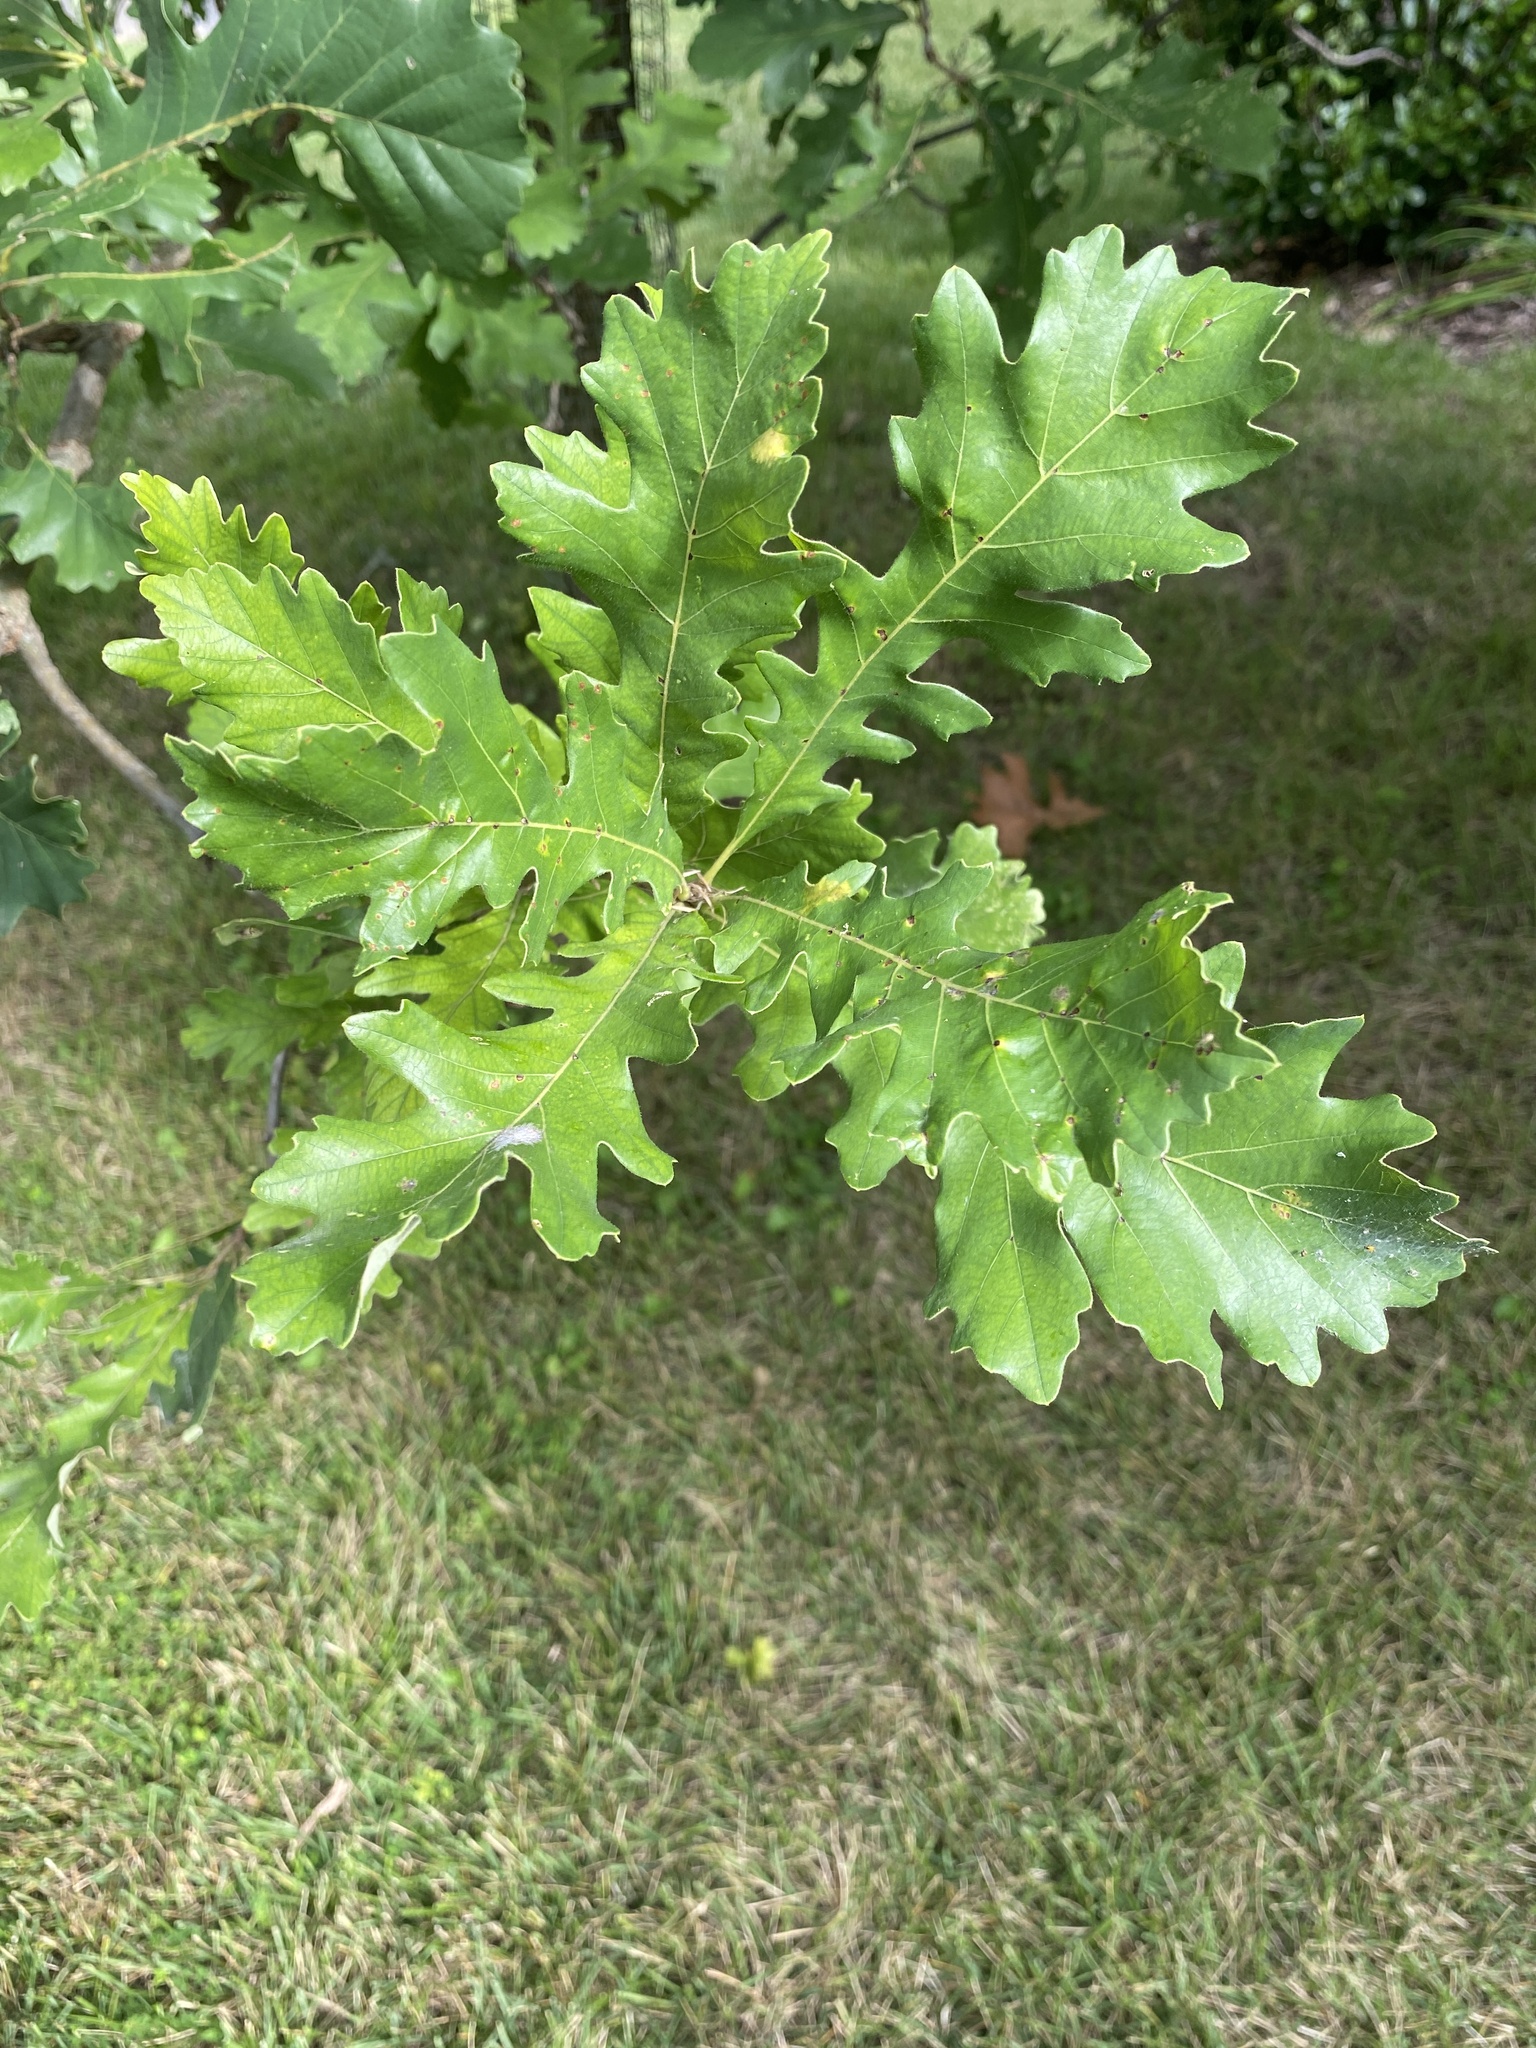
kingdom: Plantae
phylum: Tracheophyta
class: Magnoliopsida
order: Fagales
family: Fagaceae
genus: Quercus
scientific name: Quercus macrocarpa
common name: Bur oak
